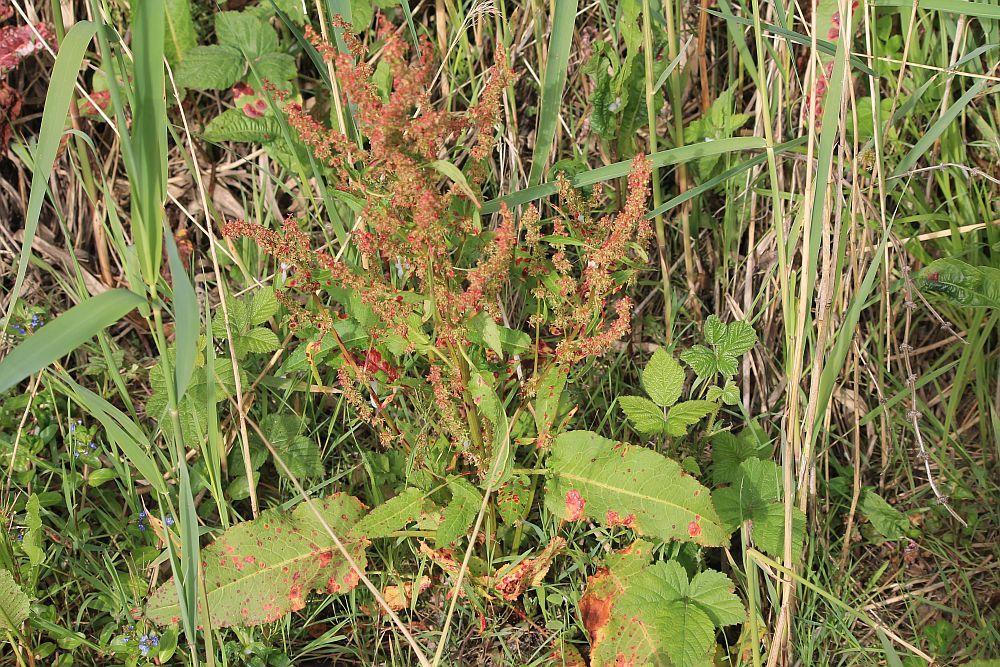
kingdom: Plantae
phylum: Tracheophyta
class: Magnoliopsida
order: Caryophyllales
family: Polygonaceae
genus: Rumex
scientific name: Rumex obtusifolius
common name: Bitter dock
